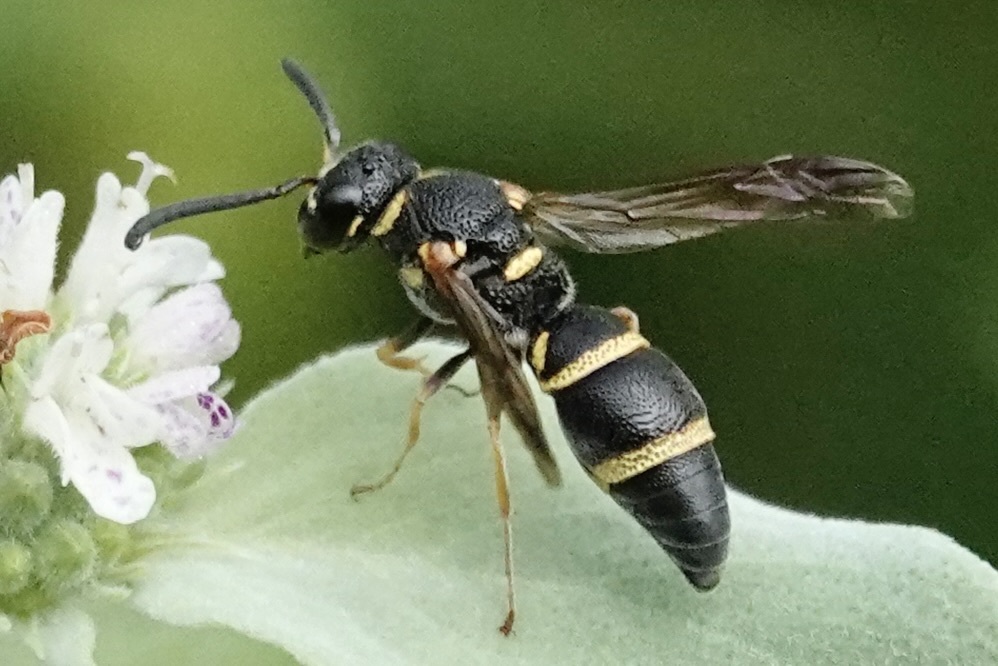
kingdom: Animalia
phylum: Arthropoda
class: Insecta
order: Hymenoptera
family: Eumenidae
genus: Parancistrocerus
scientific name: Parancistrocerus fulvipes
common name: Potter wasp
